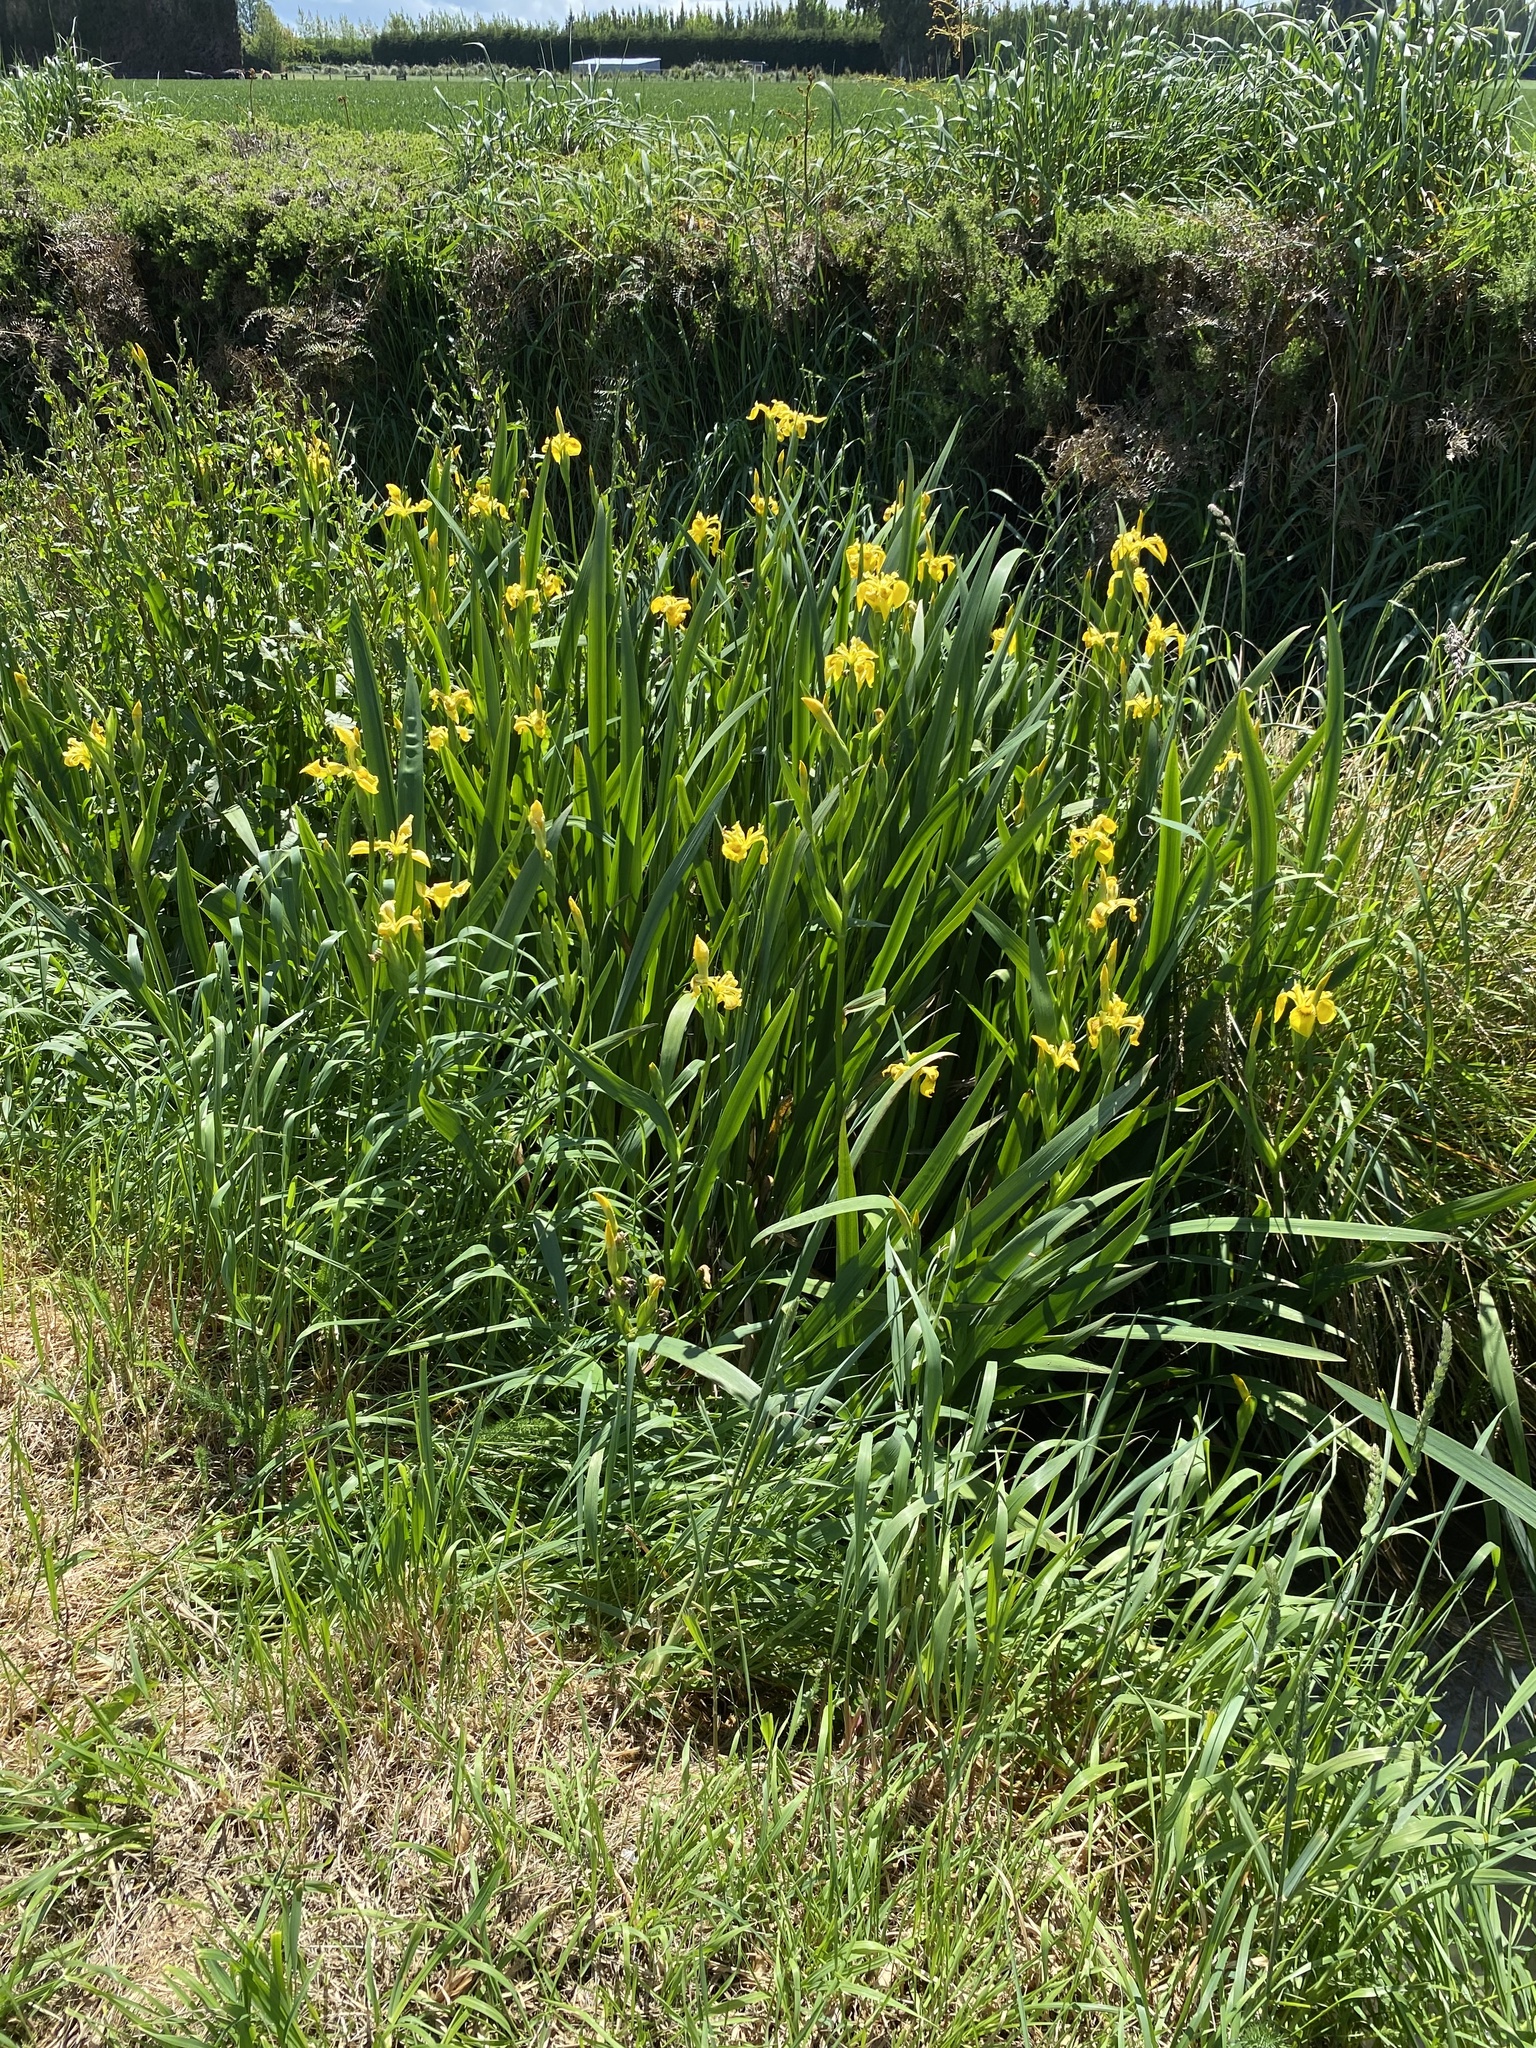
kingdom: Plantae
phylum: Tracheophyta
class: Liliopsida
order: Asparagales
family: Iridaceae
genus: Iris
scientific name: Iris pseudacorus
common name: Yellow flag
